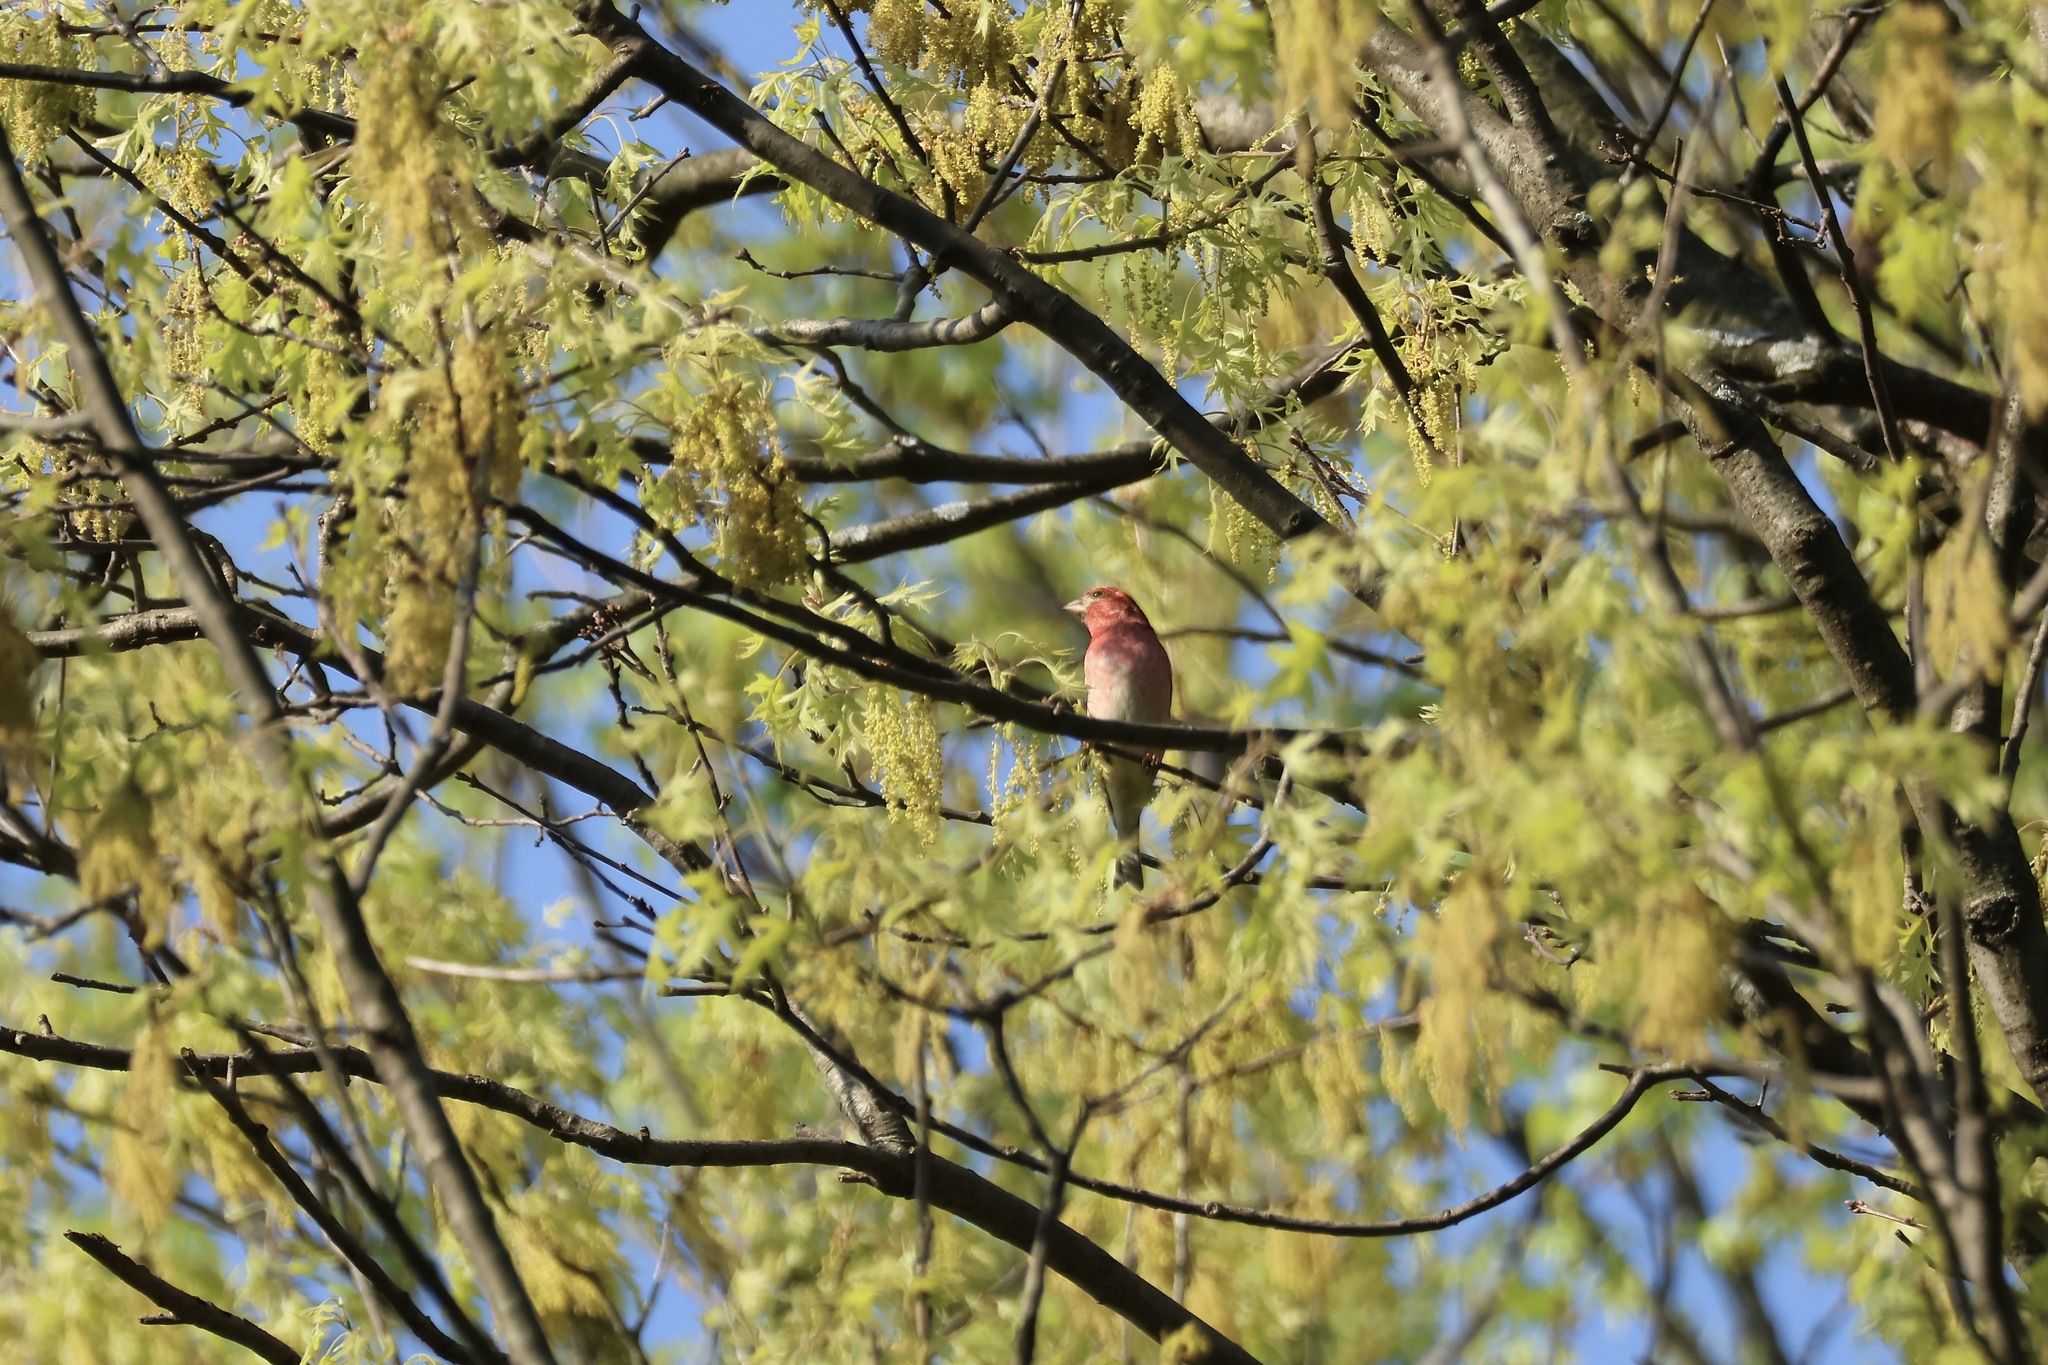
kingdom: Animalia
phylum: Chordata
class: Aves
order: Passeriformes
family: Fringillidae
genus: Haemorhous
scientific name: Haemorhous purpureus
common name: Purple finch
